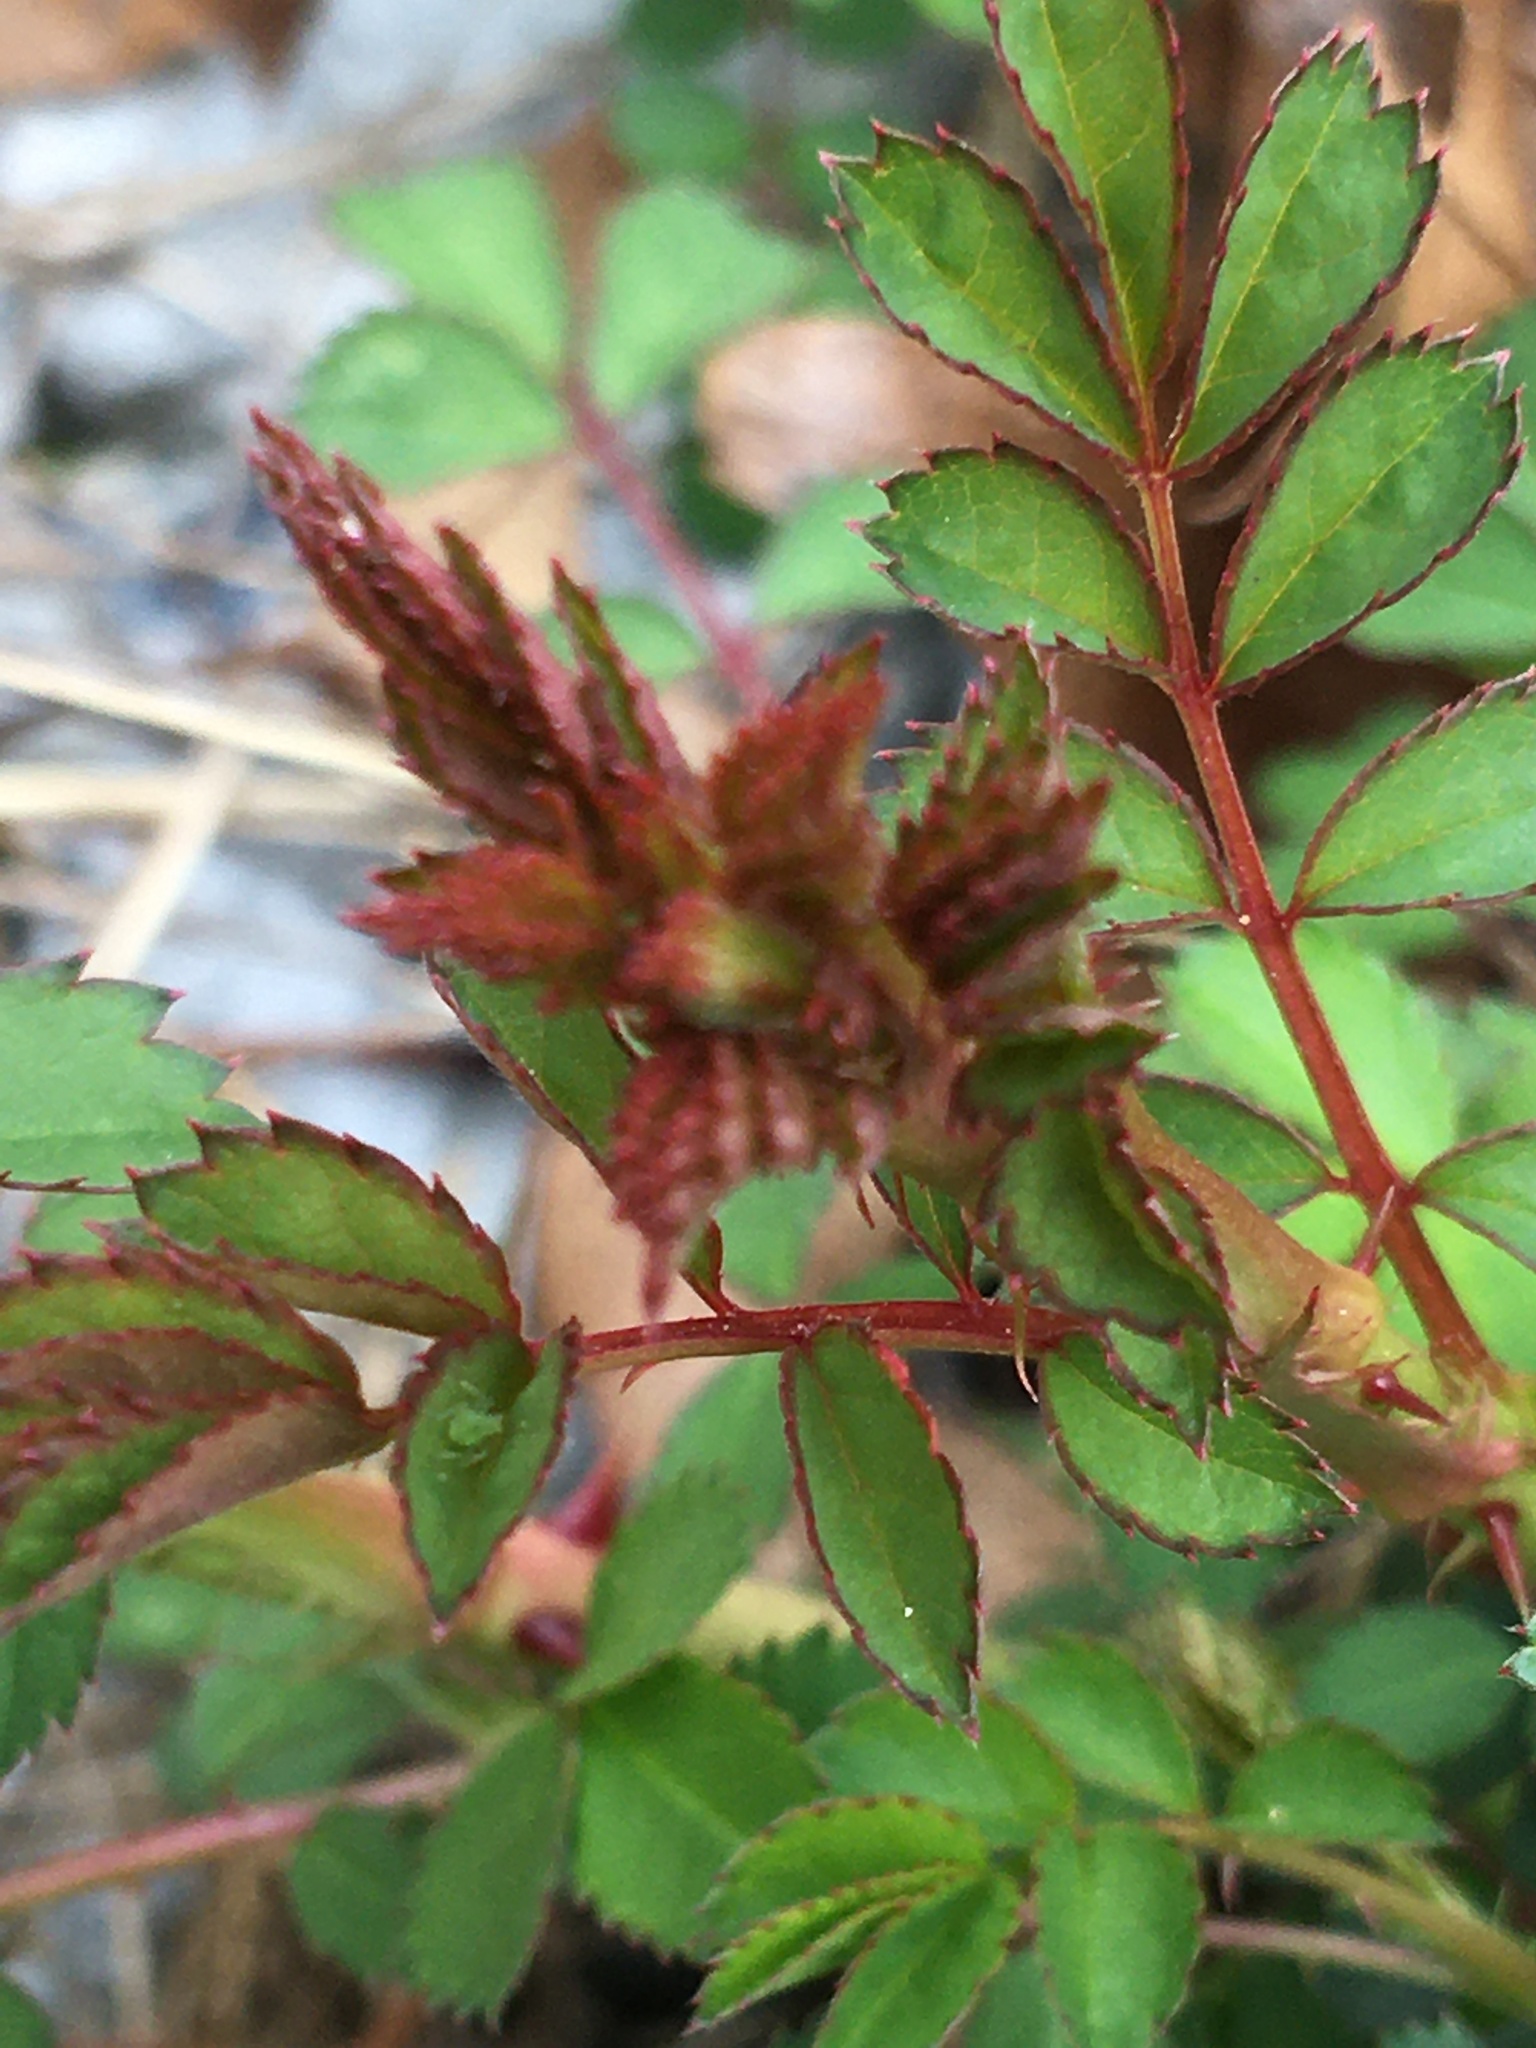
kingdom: Plantae
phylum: Tracheophyta
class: Magnoliopsida
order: Rosales
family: Rosaceae
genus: Rosa
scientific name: Rosa multiflora
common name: Multiflora rose
